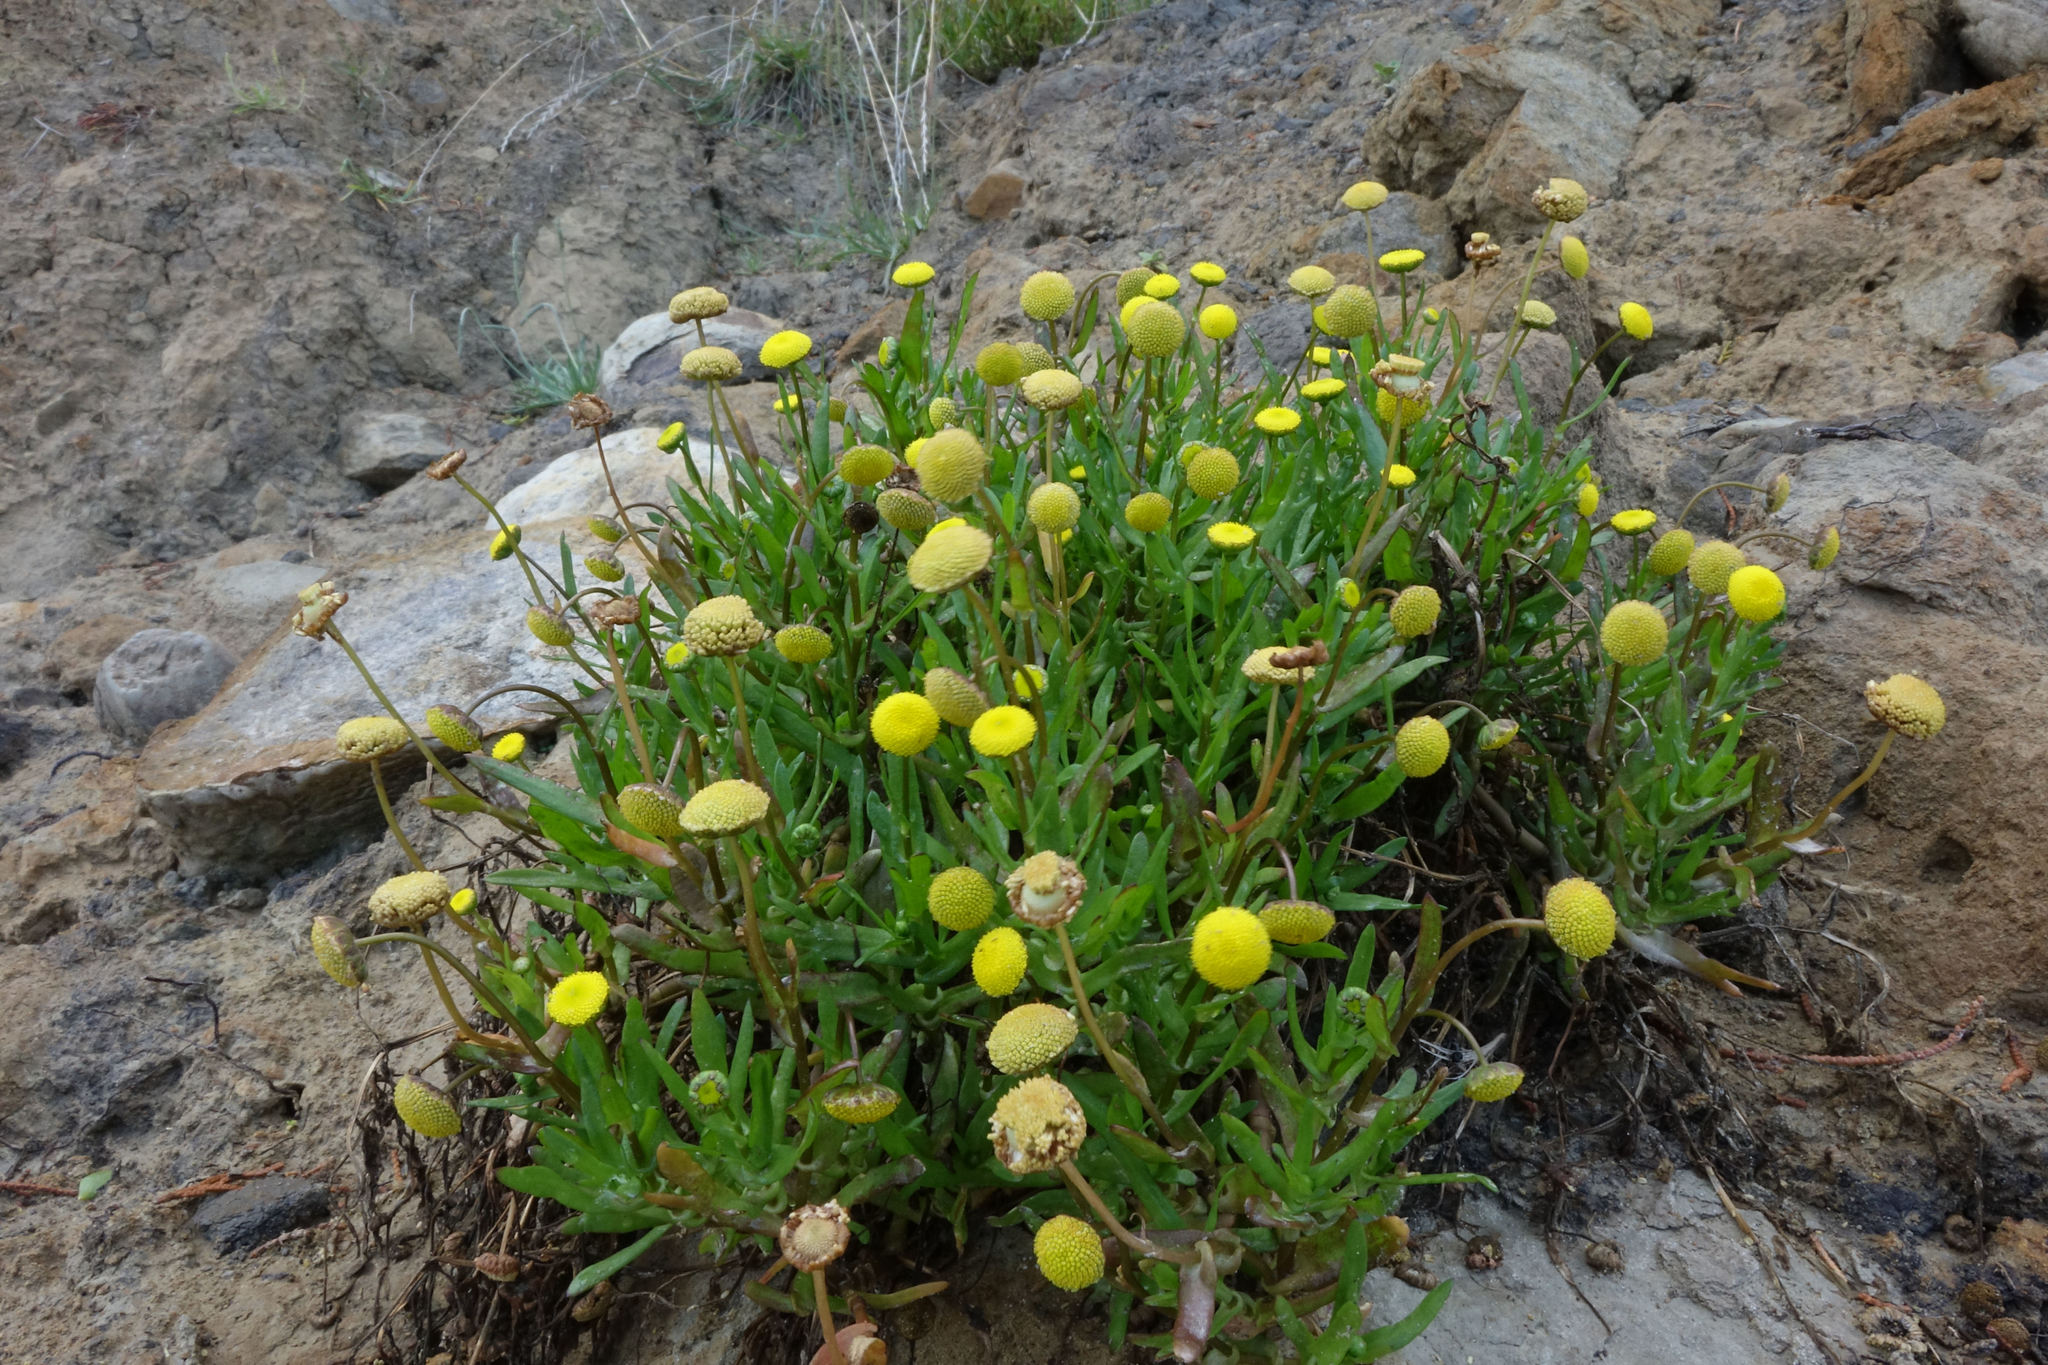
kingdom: Plantae
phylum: Tracheophyta
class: Magnoliopsida
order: Asterales
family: Asteraceae
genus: Cotula
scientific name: Cotula coronopifolia
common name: Buttonweed
